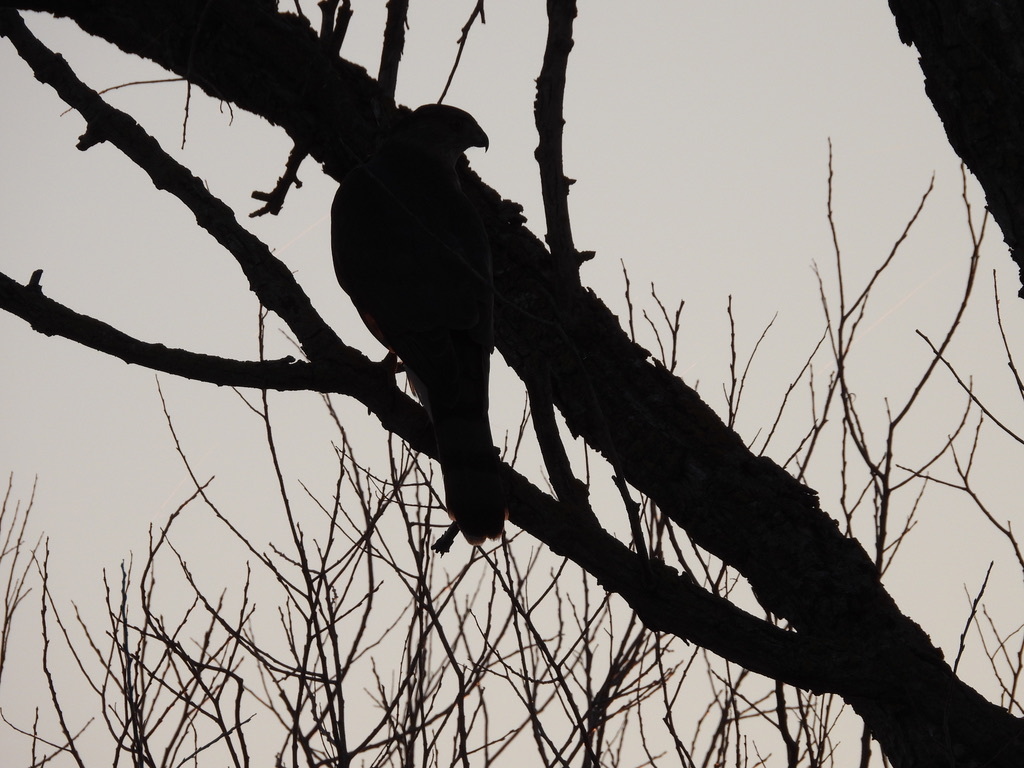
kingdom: Animalia
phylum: Chordata
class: Aves
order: Accipitriformes
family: Accipitridae
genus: Accipiter
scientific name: Accipiter cooperii
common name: Cooper's hawk
